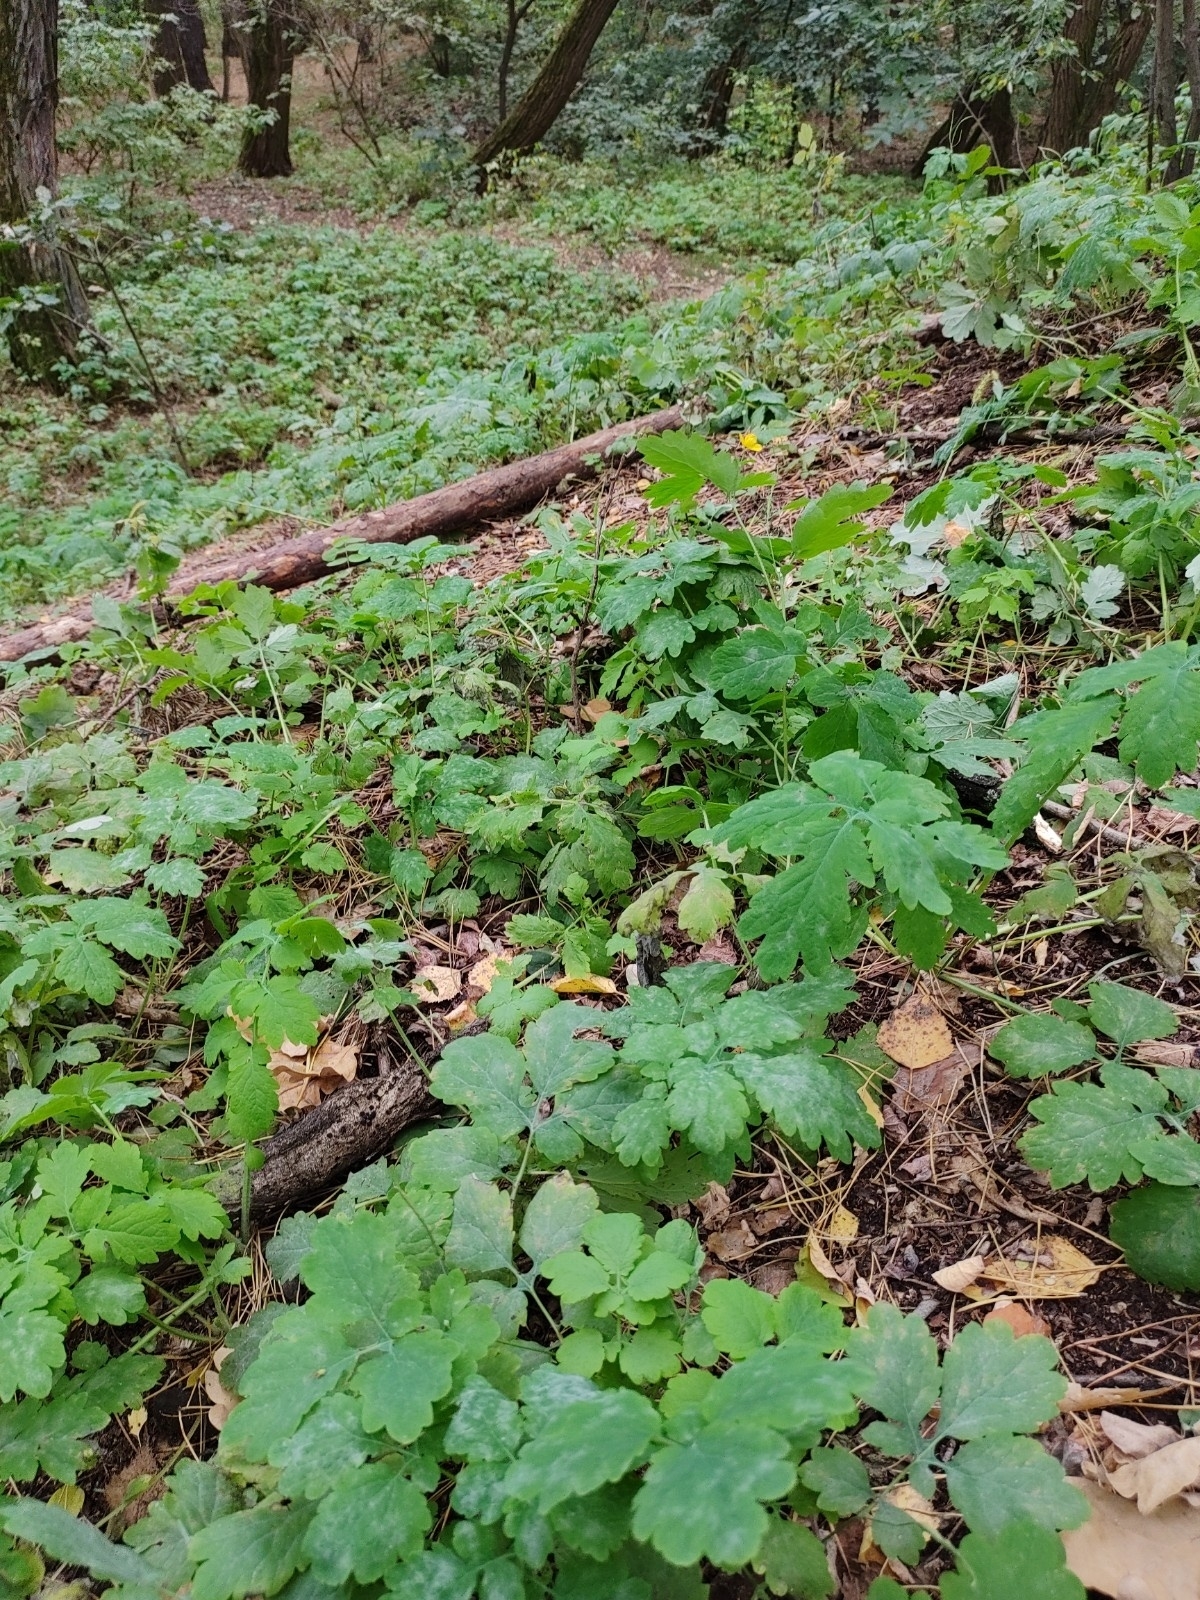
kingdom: Plantae
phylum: Tracheophyta
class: Magnoliopsida
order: Ranunculales
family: Papaveraceae
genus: Chelidonium
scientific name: Chelidonium majus
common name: Greater celandine
